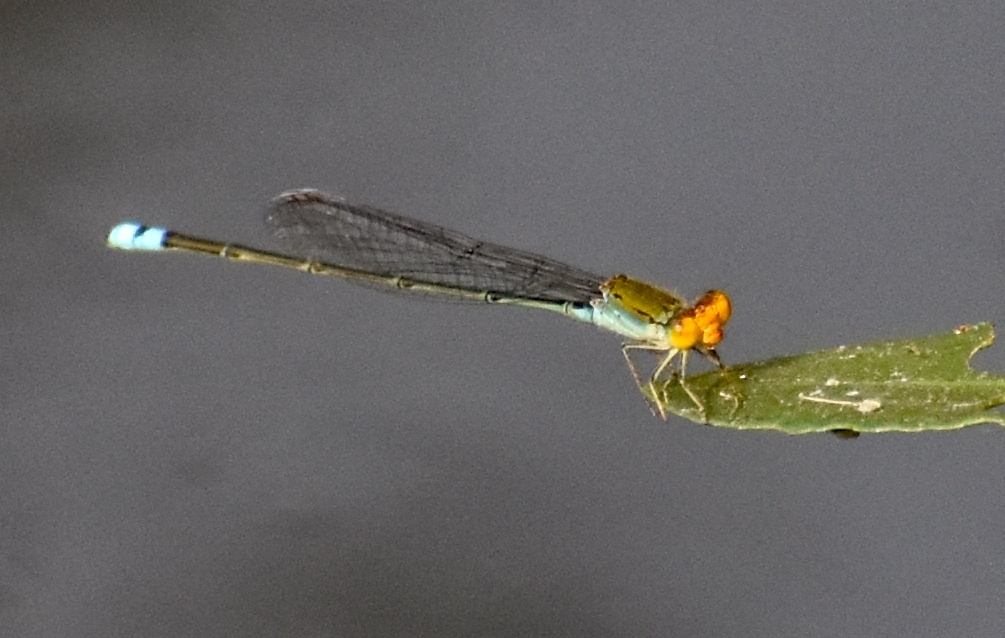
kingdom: Animalia
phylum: Arthropoda
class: Insecta
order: Odonata
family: Coenagrionidae
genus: Pseudagrion
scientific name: Pseudagrion rubriceps
